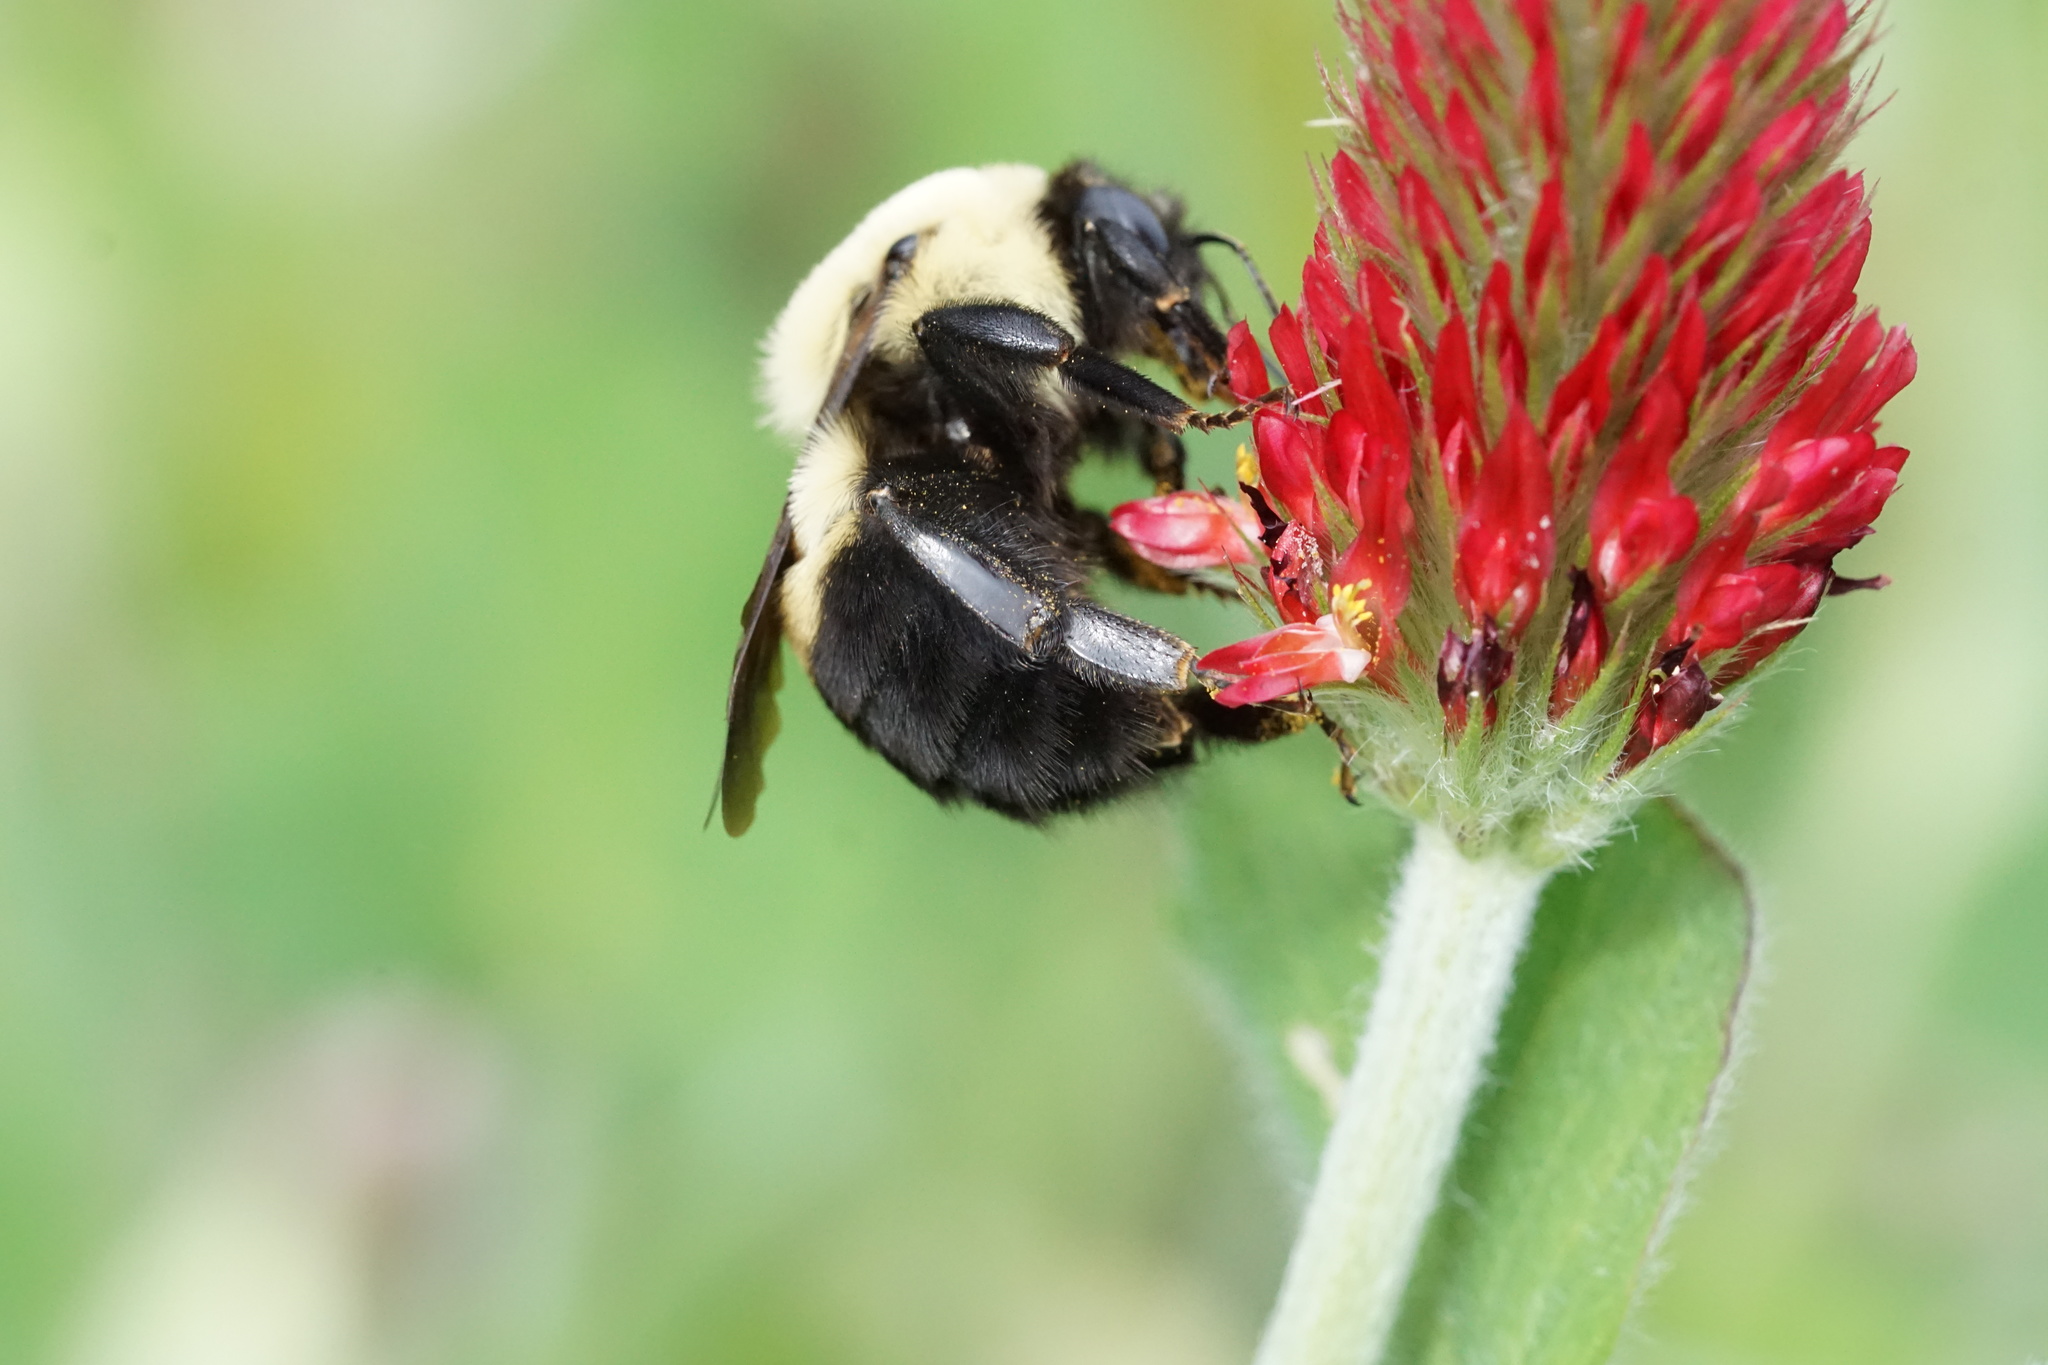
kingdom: Animalia
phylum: Arthropoda
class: Insecta
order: Hymenoptera
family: Apidae
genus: Bombus
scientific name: Bombus griseocollis
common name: Brown-belted bumble bee
